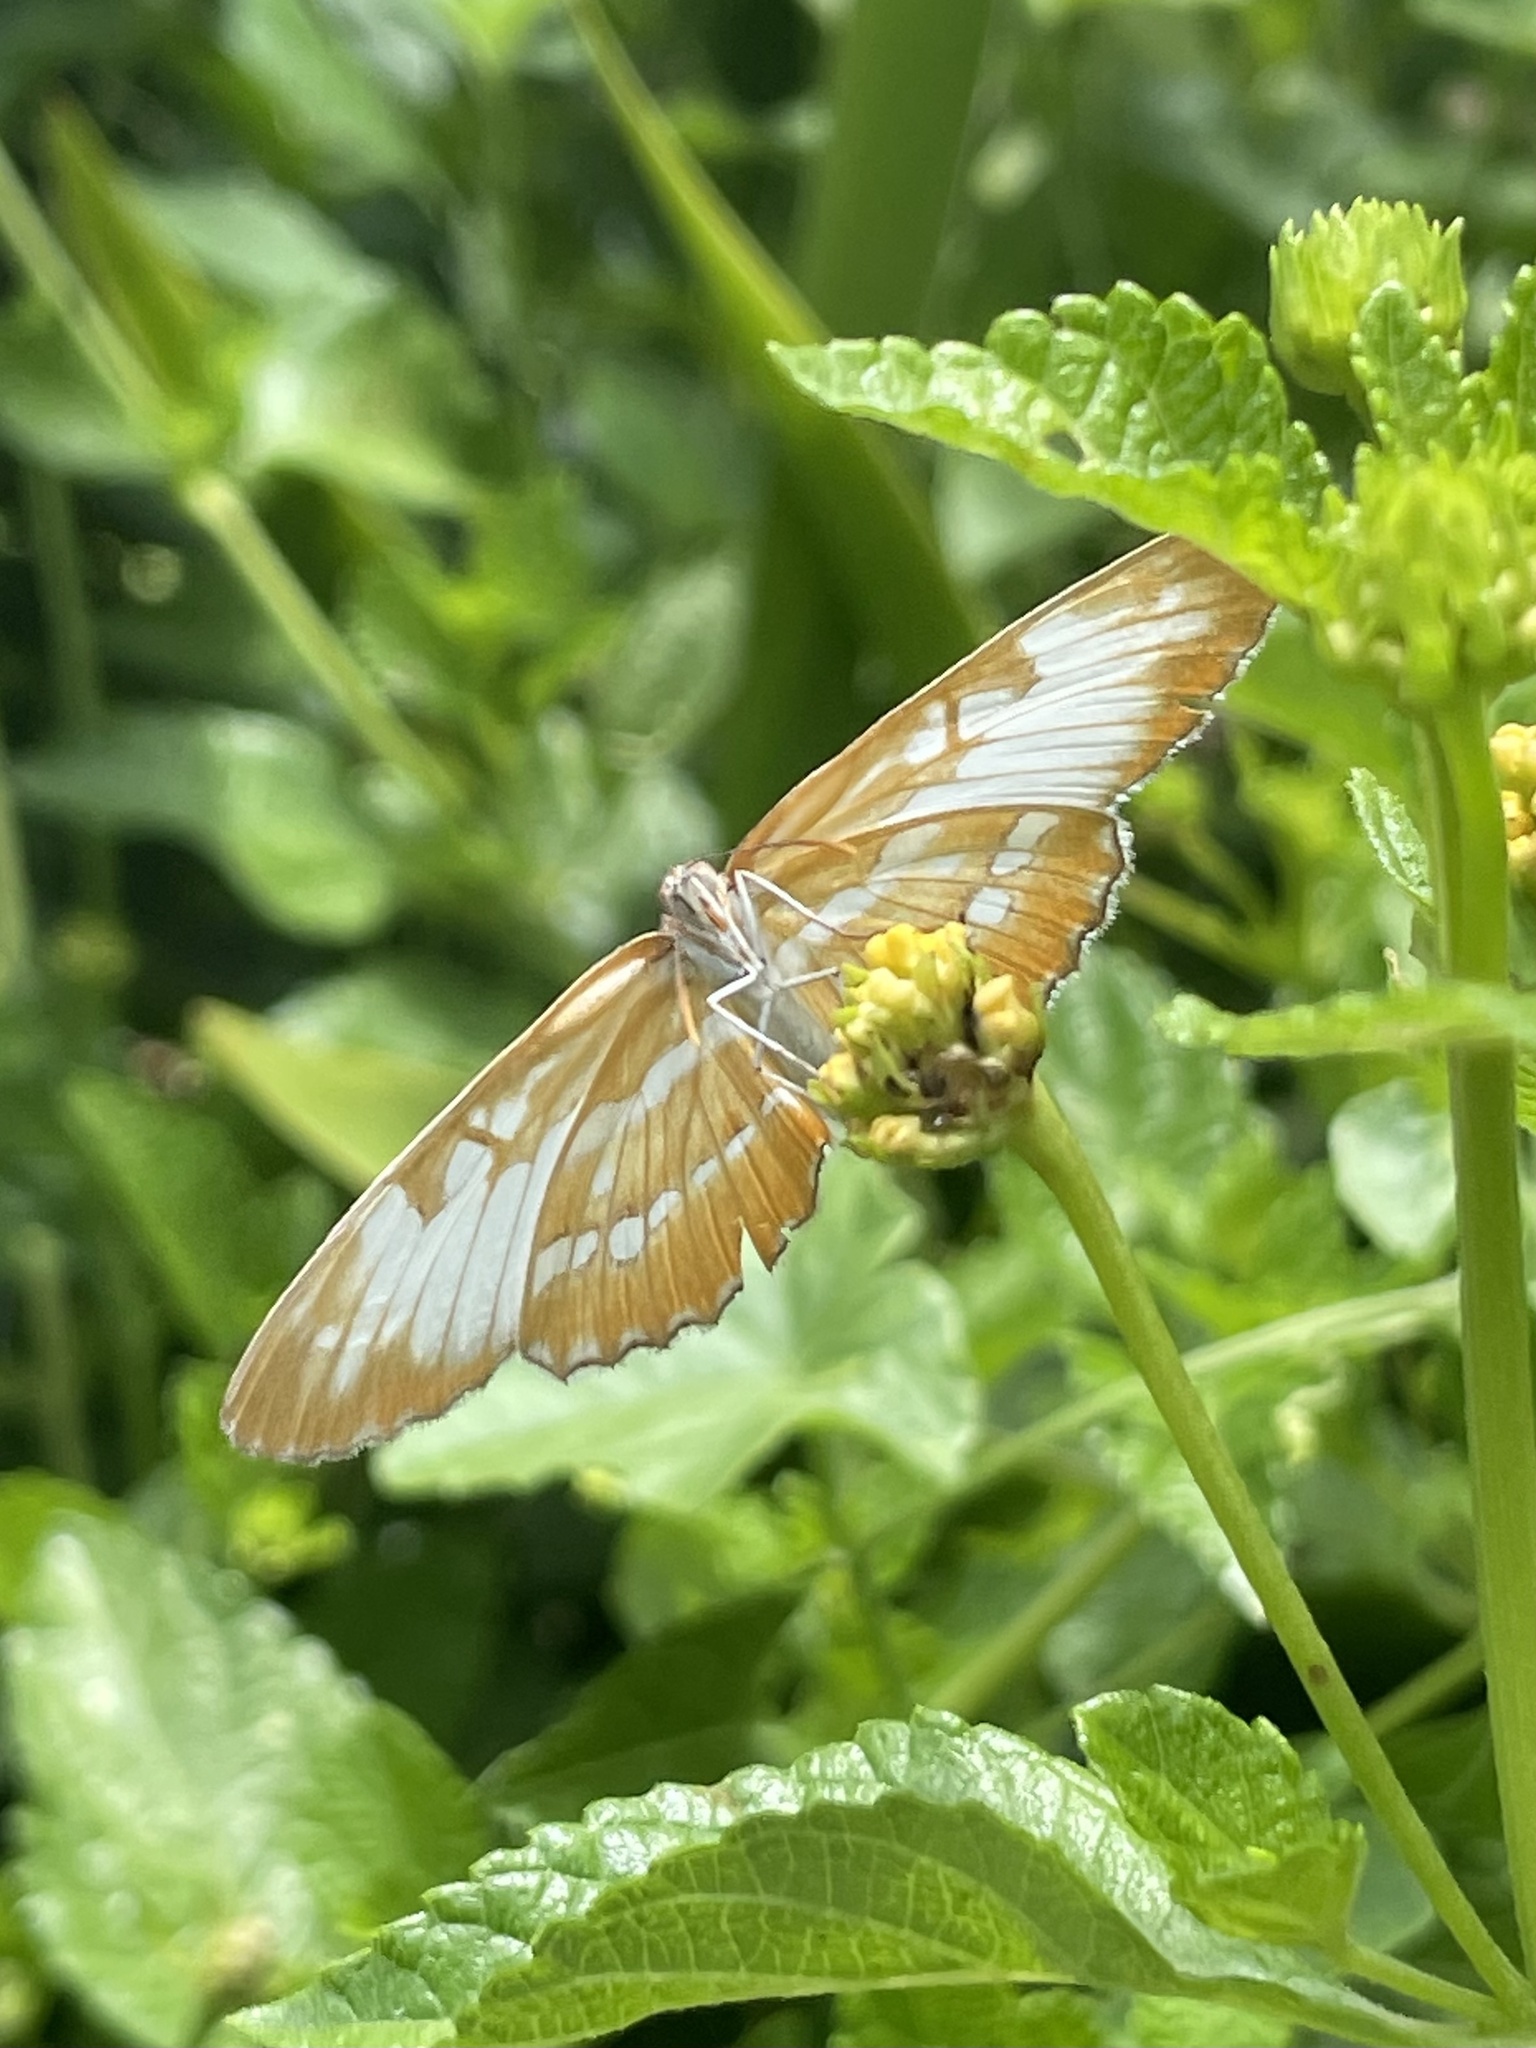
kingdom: Animalia
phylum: Arthropoda
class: Insecta
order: Lepidoptera
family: Nymphalidae
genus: Mestra
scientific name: Mestra amymone
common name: Common mestra
